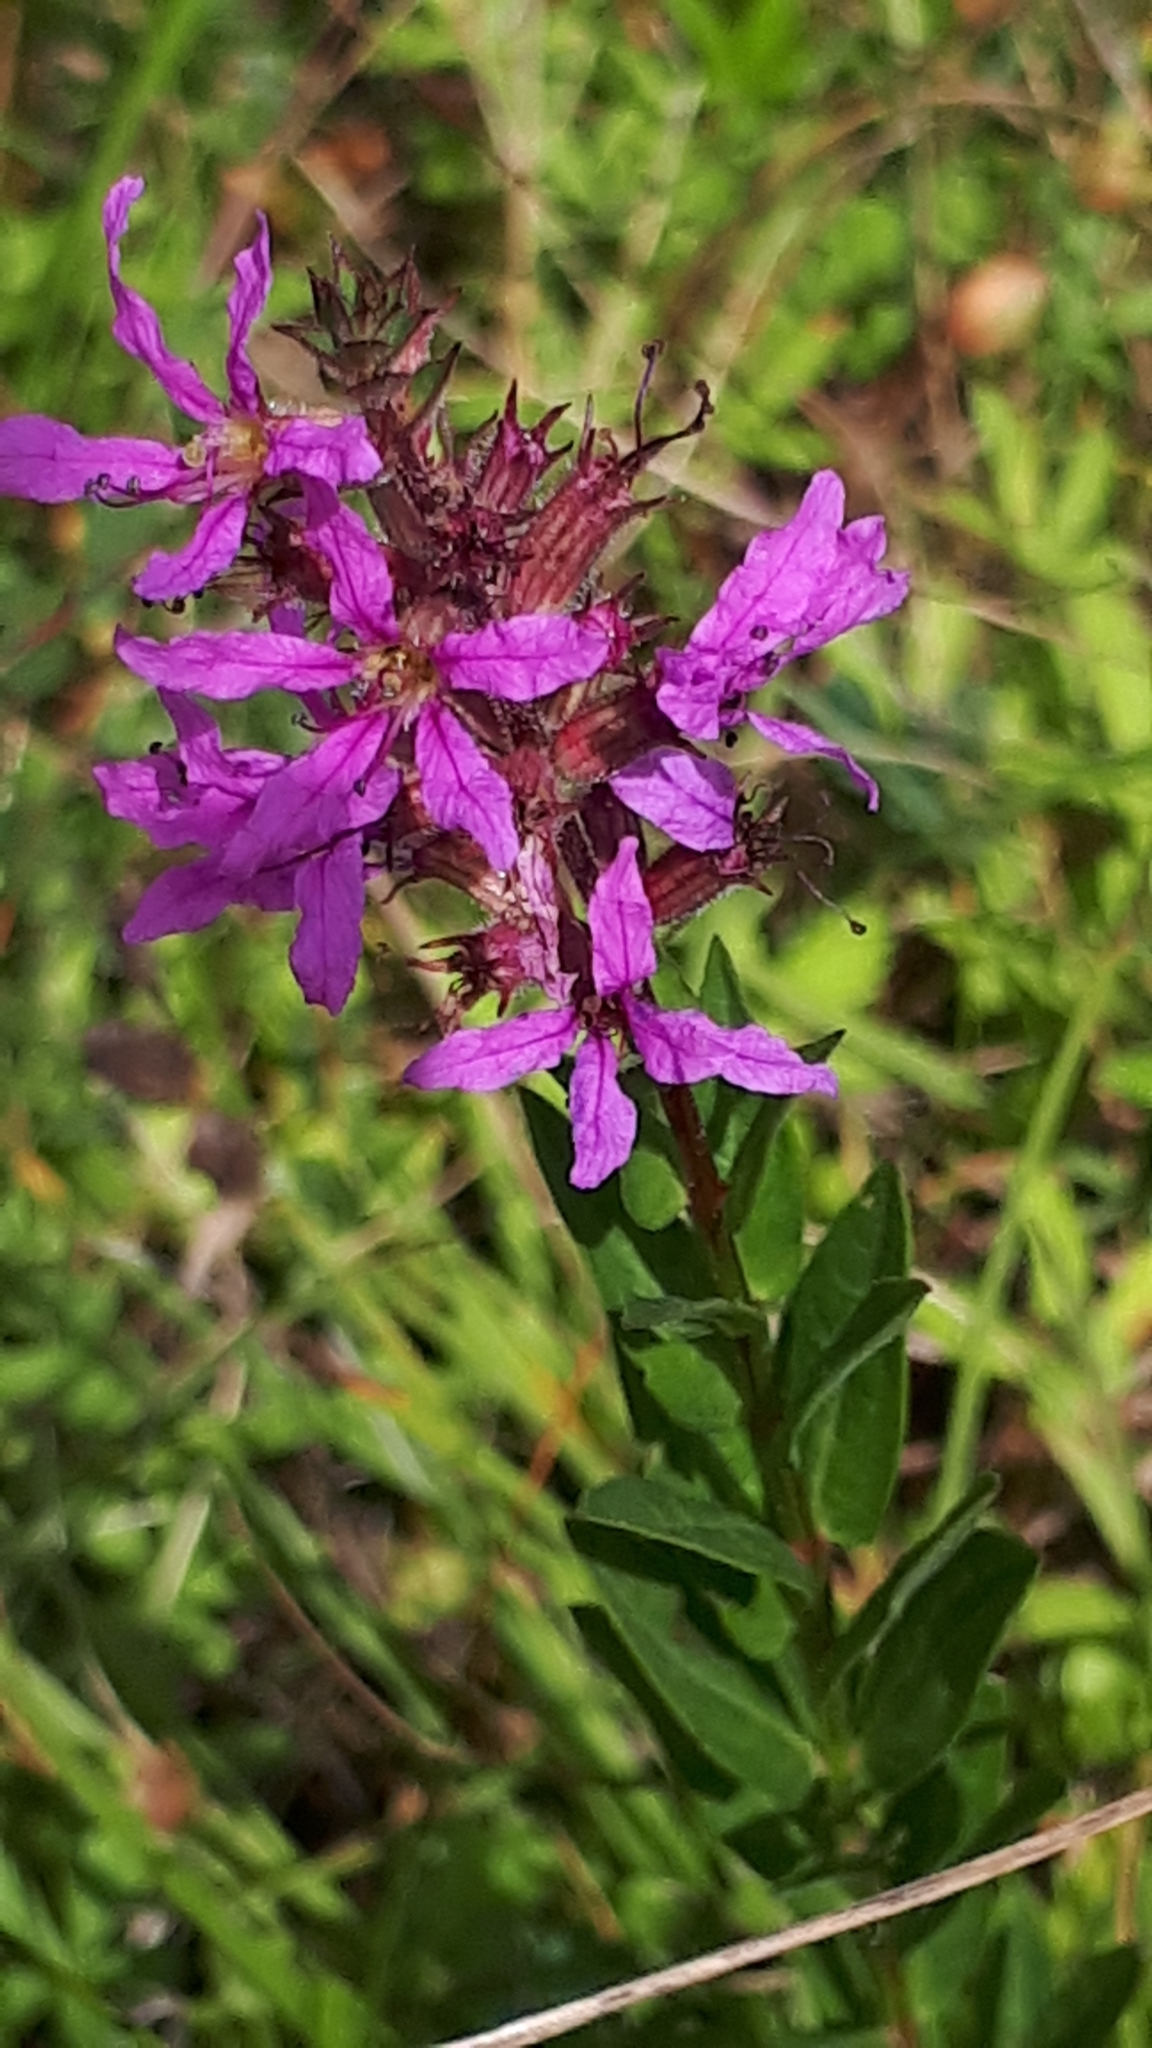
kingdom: Plantae
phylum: Tracheophyta
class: Magnoliopsida
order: Myrtales
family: Lythraceae
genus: Lythrum
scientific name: Lythrum salicaria
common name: Purple loosestrife
